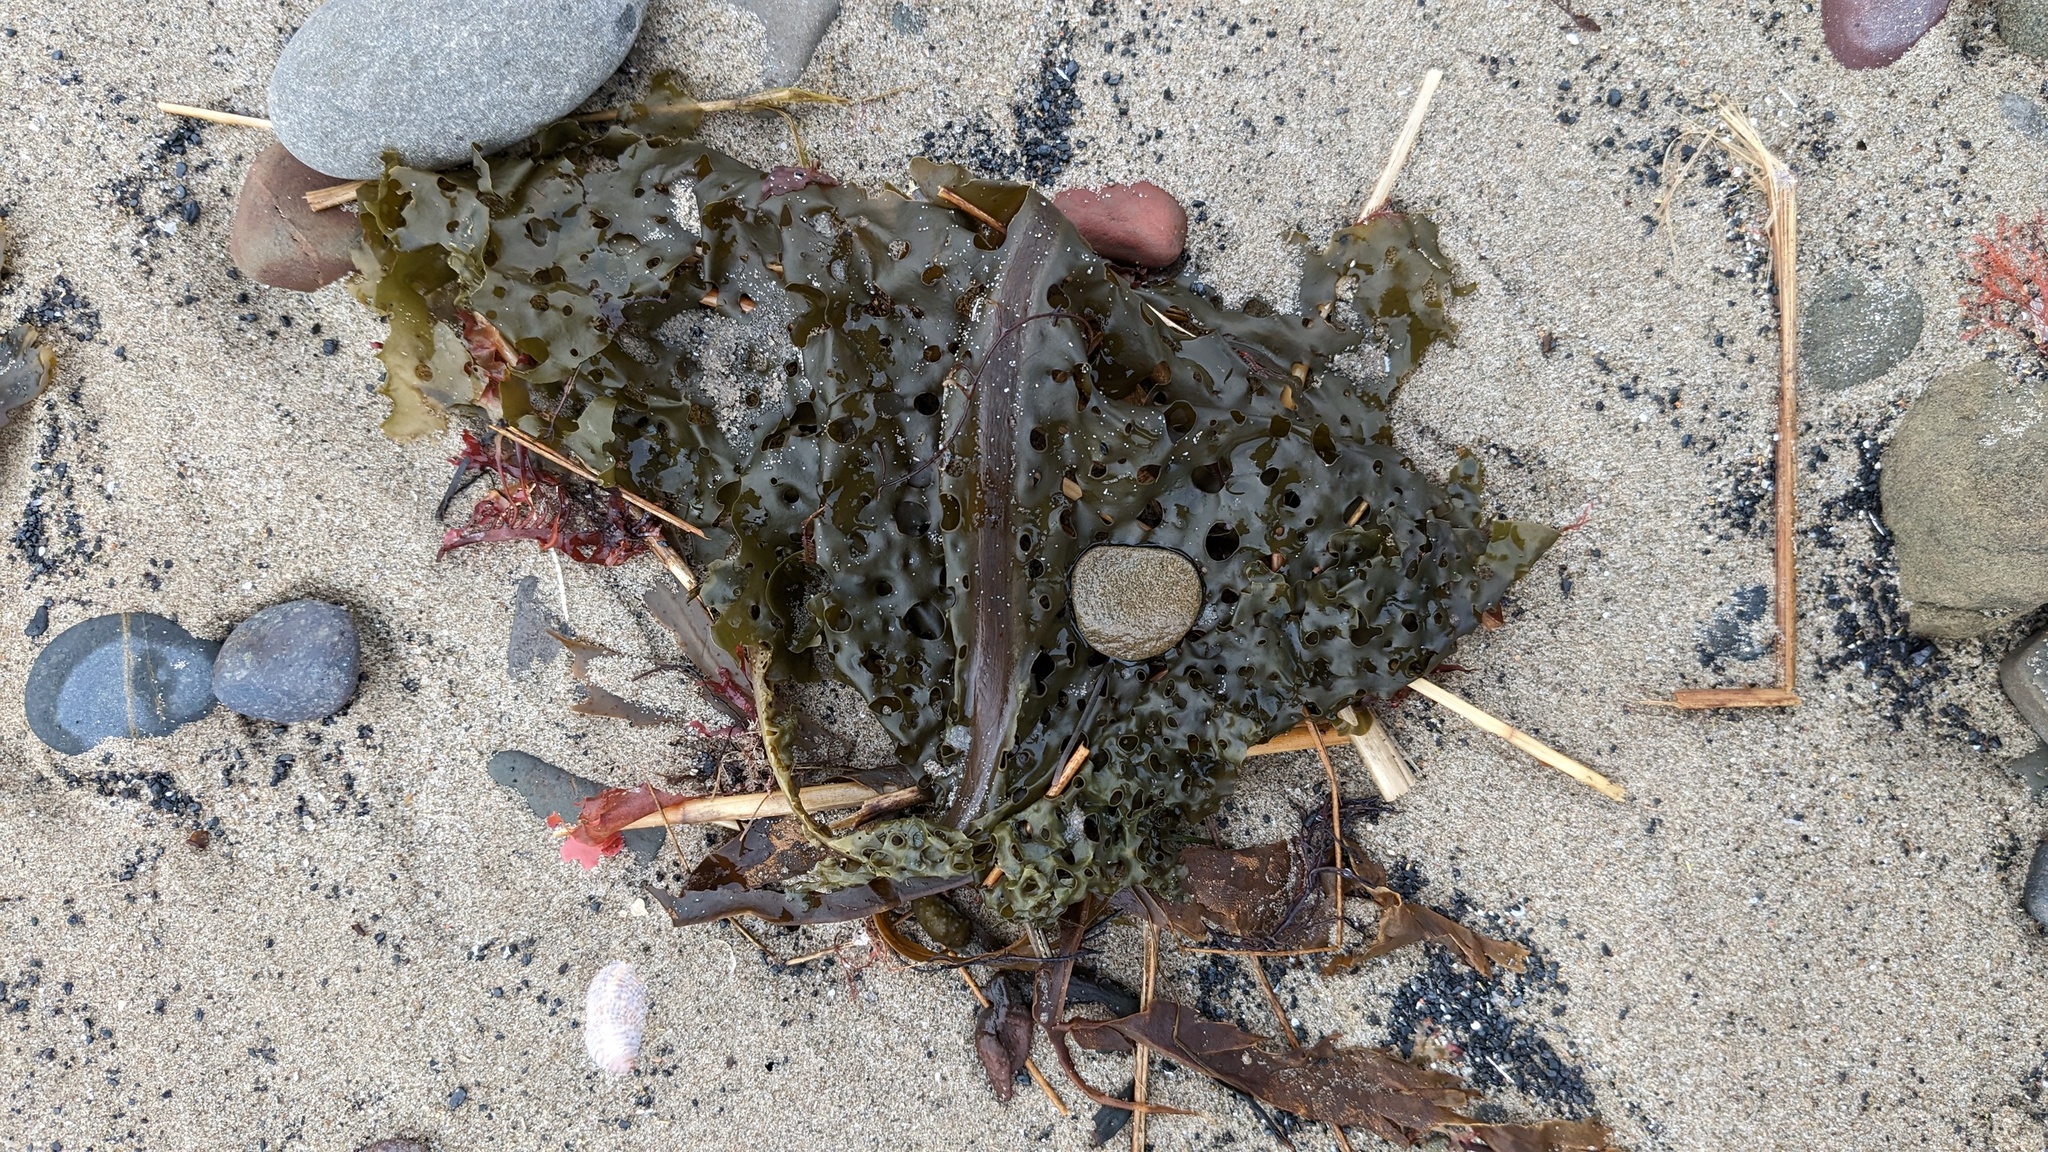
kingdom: Chromista
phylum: Ochrophyta
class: Phaeophyceae
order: Laminariales
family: Costariaceae
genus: Agarum
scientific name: Agarum clathratum
